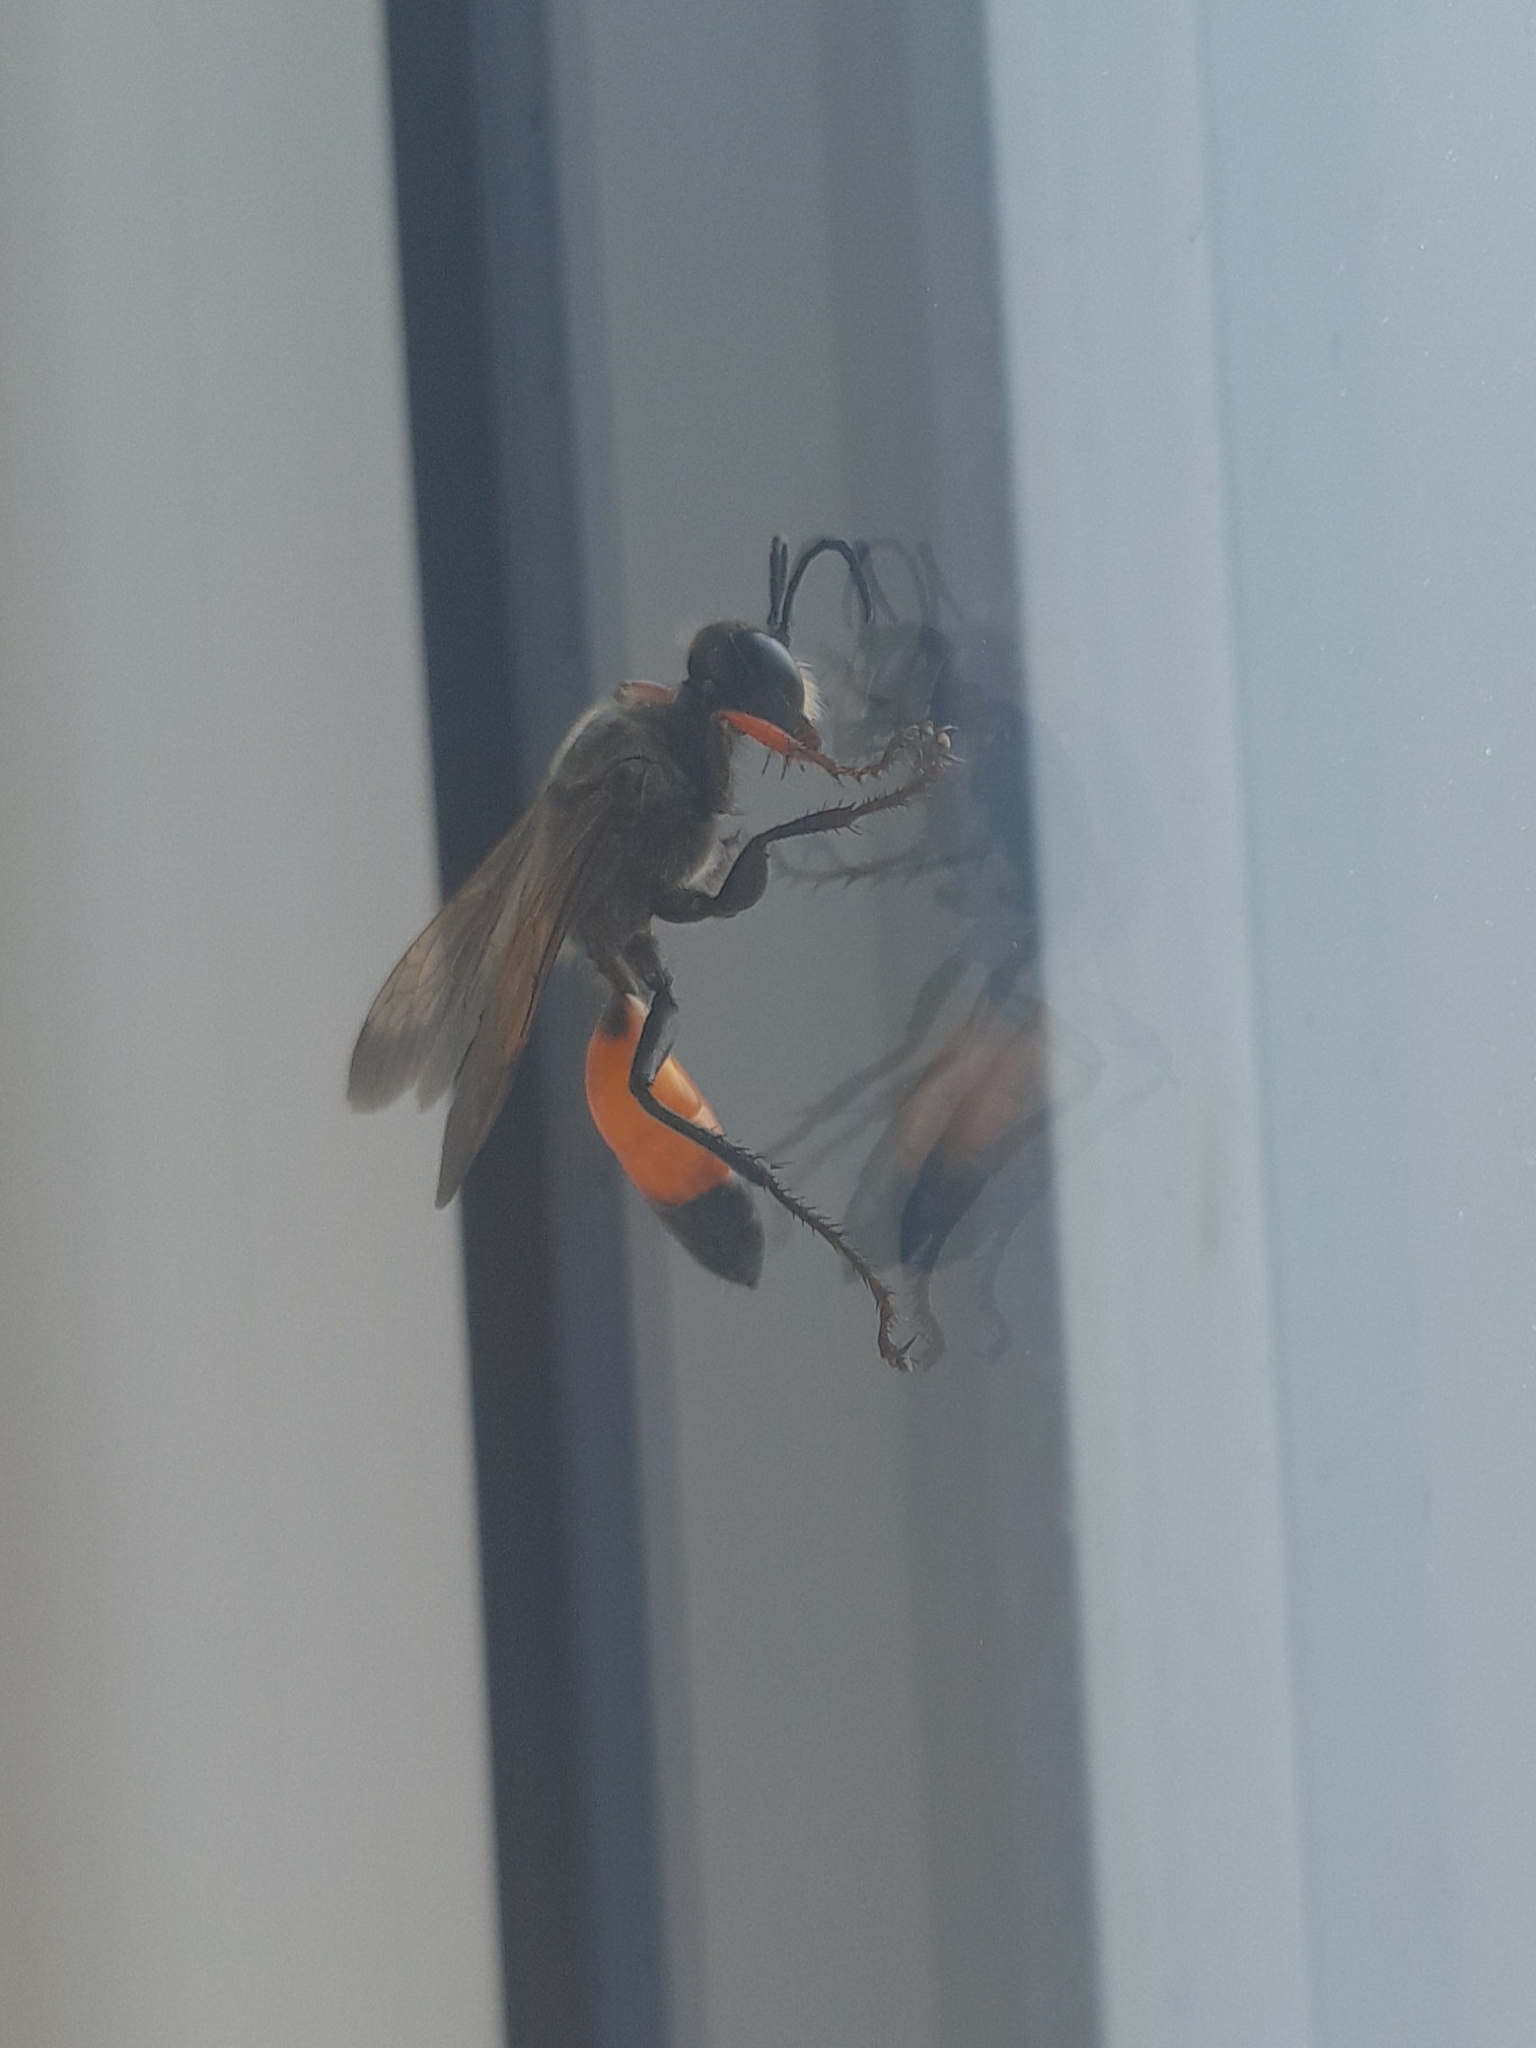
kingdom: Animalia
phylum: Arthropoda
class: Insecta
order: Hymenoptera
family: Sphecidae
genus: Sphex
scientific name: Sphex funerarius
